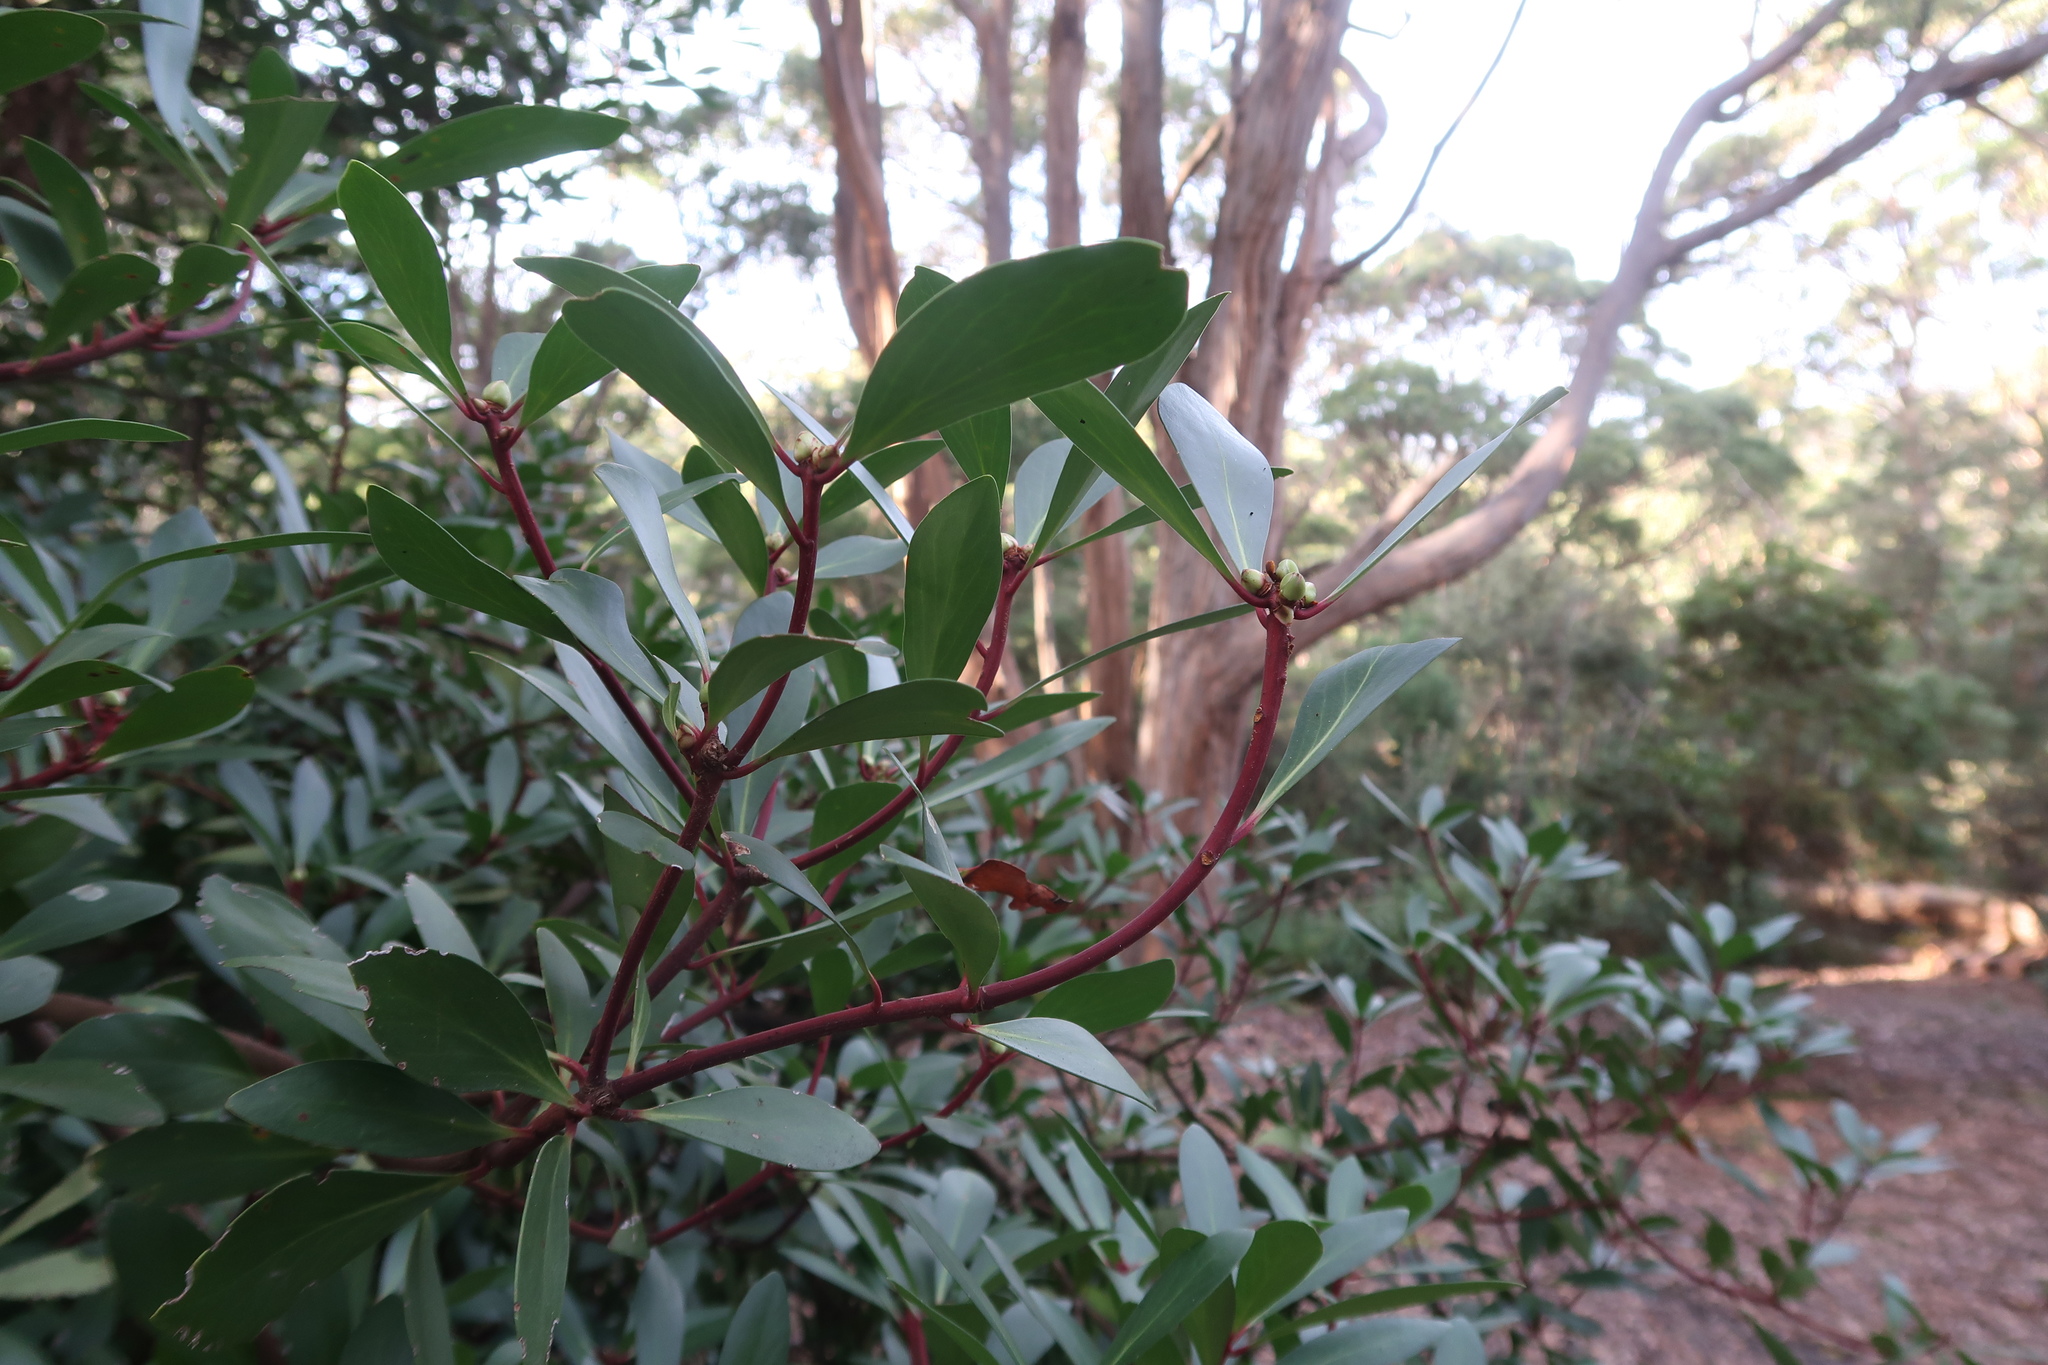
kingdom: Plantae
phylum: Tracheophyta
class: Magnoliopsida
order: Canellales
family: Winteraceae
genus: Drimys
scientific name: Drimys aromatica
